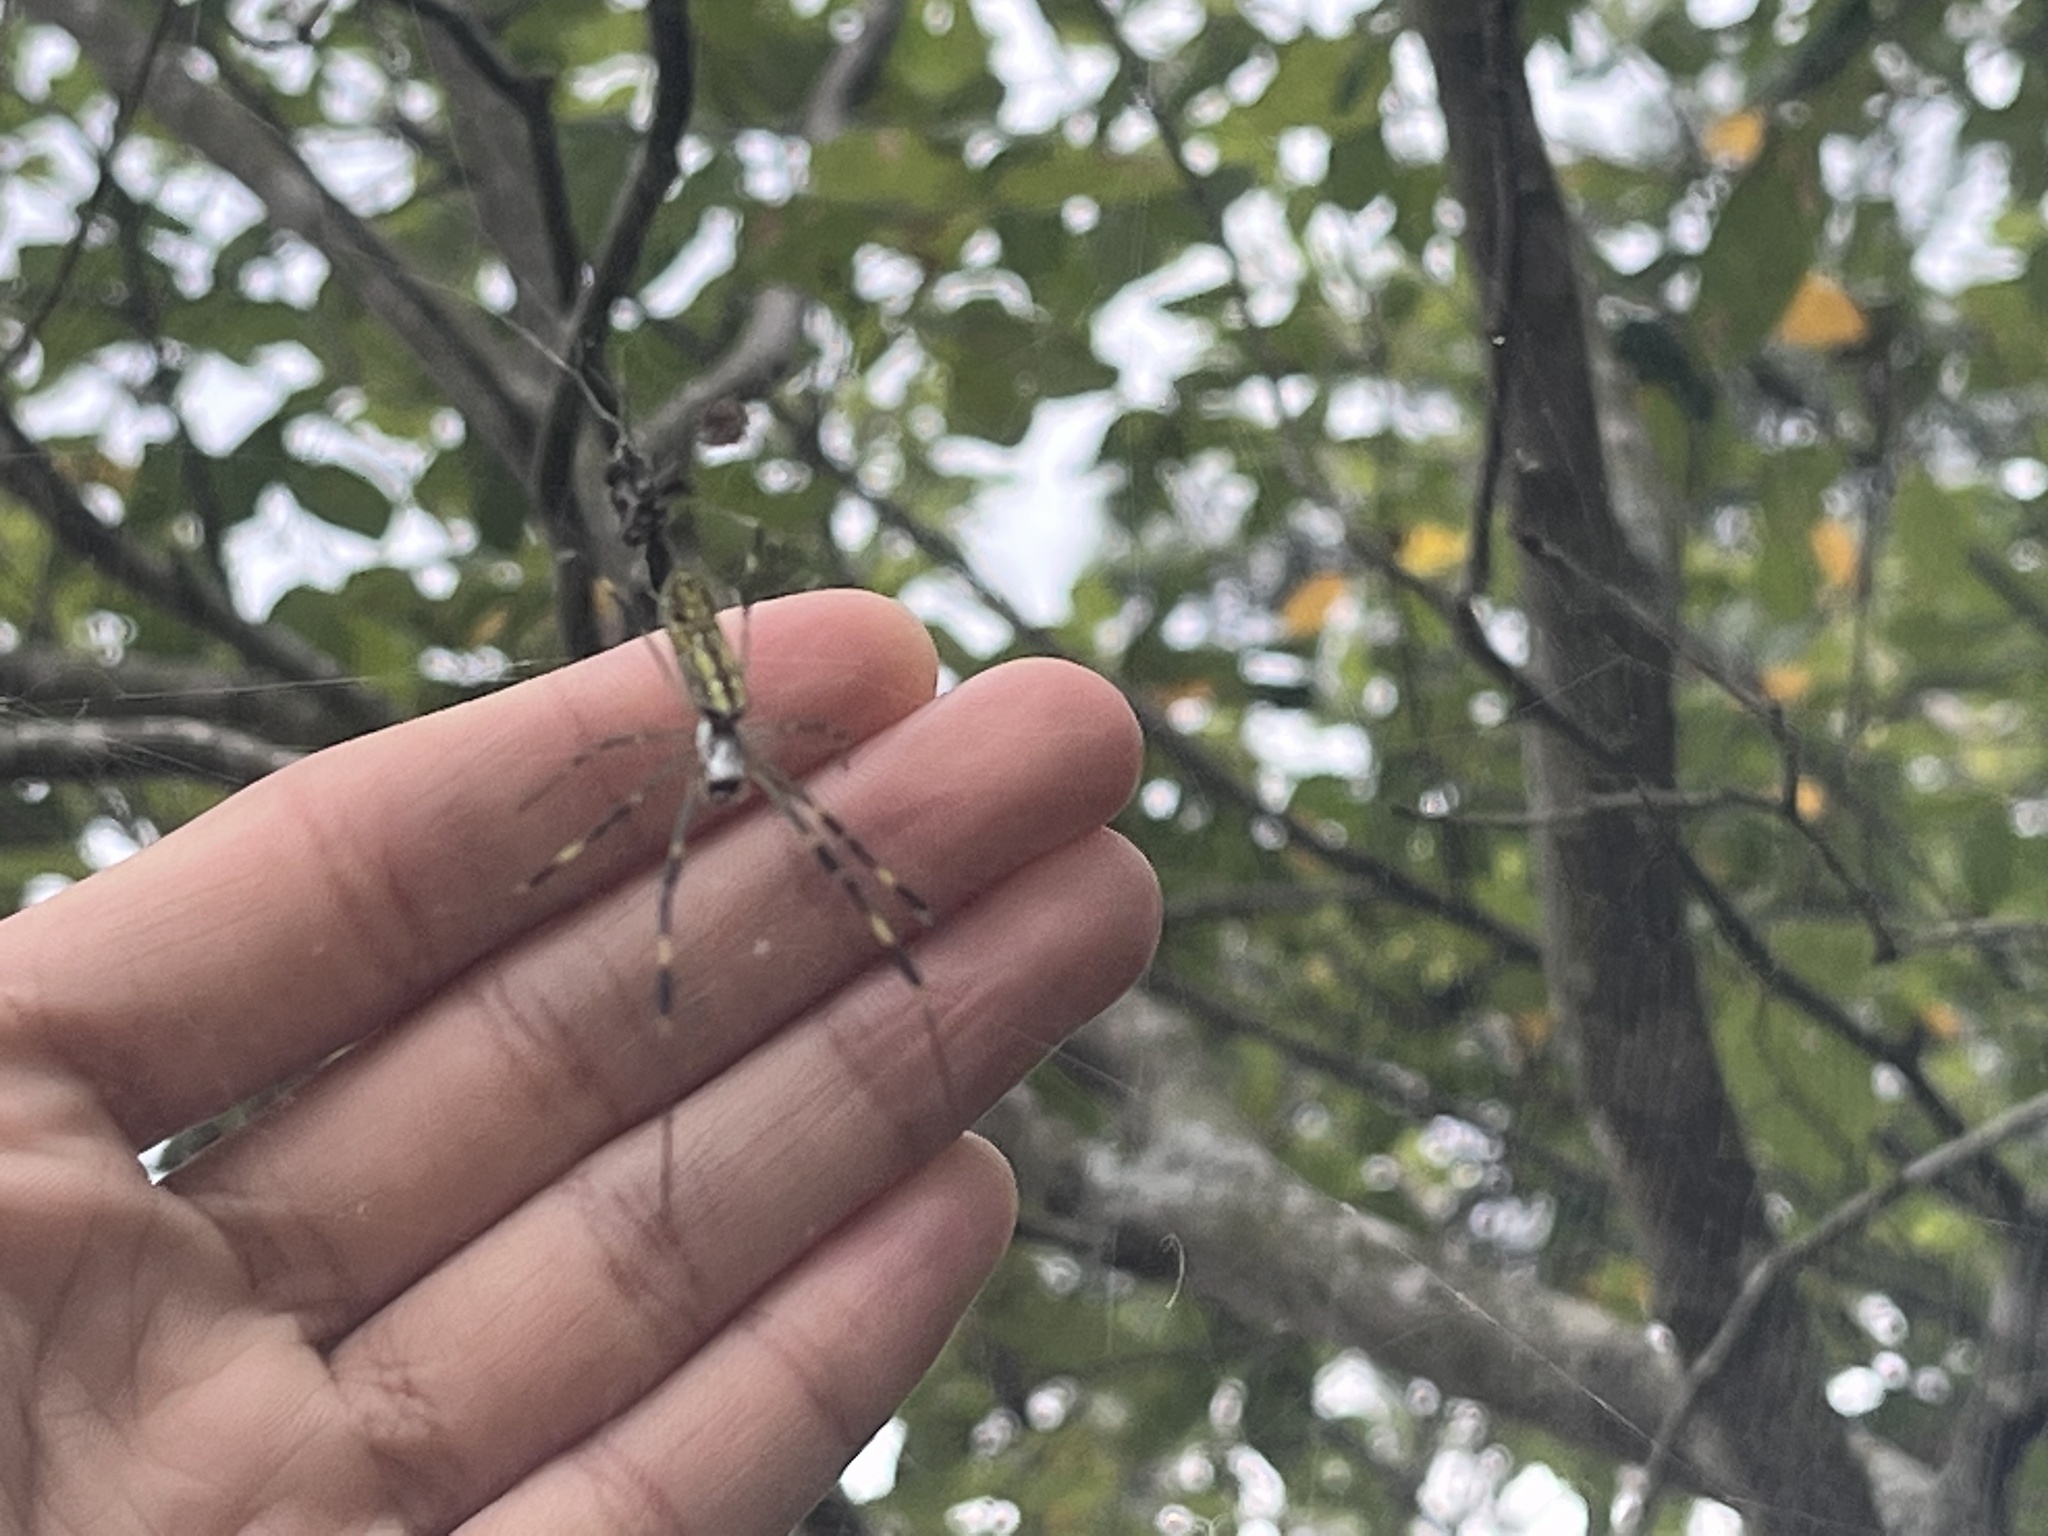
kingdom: Animalia
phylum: Arthropoda
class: Arachnida
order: Araneae
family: Araneidae
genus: Trichonephila
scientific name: Trichonephila clavata
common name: Jorō spider
